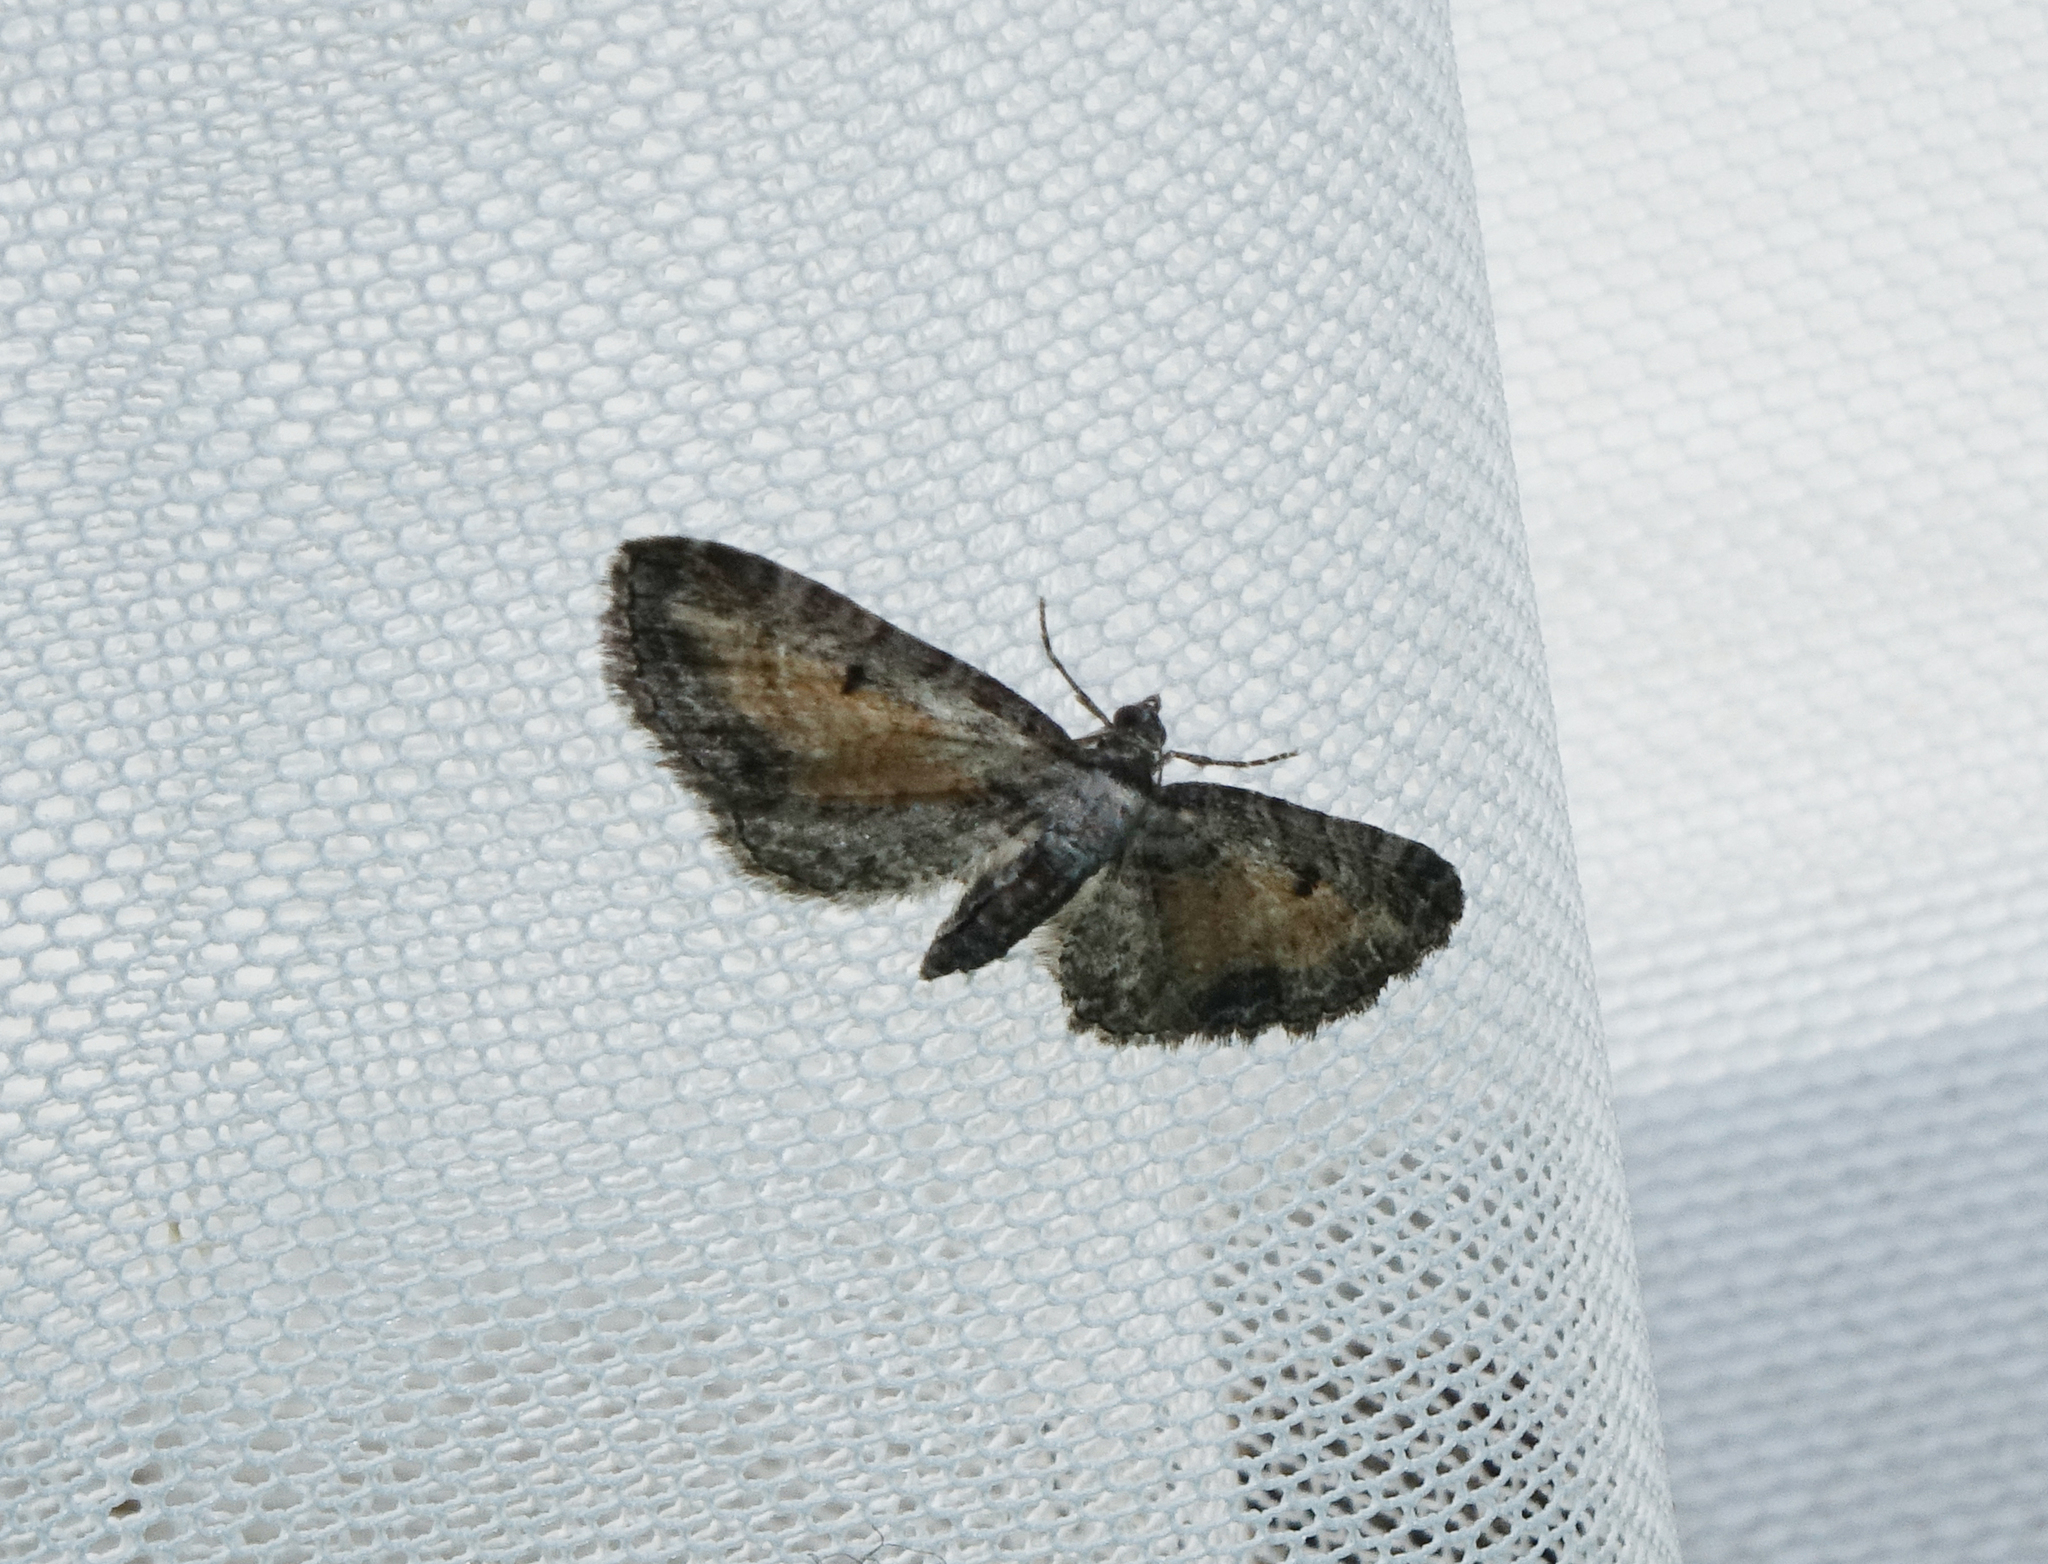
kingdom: Animalia
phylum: Arthropoda
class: Insecta
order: Lepidoptera
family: Geometridae
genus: Eupithecia
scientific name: Eupithecia icterata
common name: Tawny speckled pug
